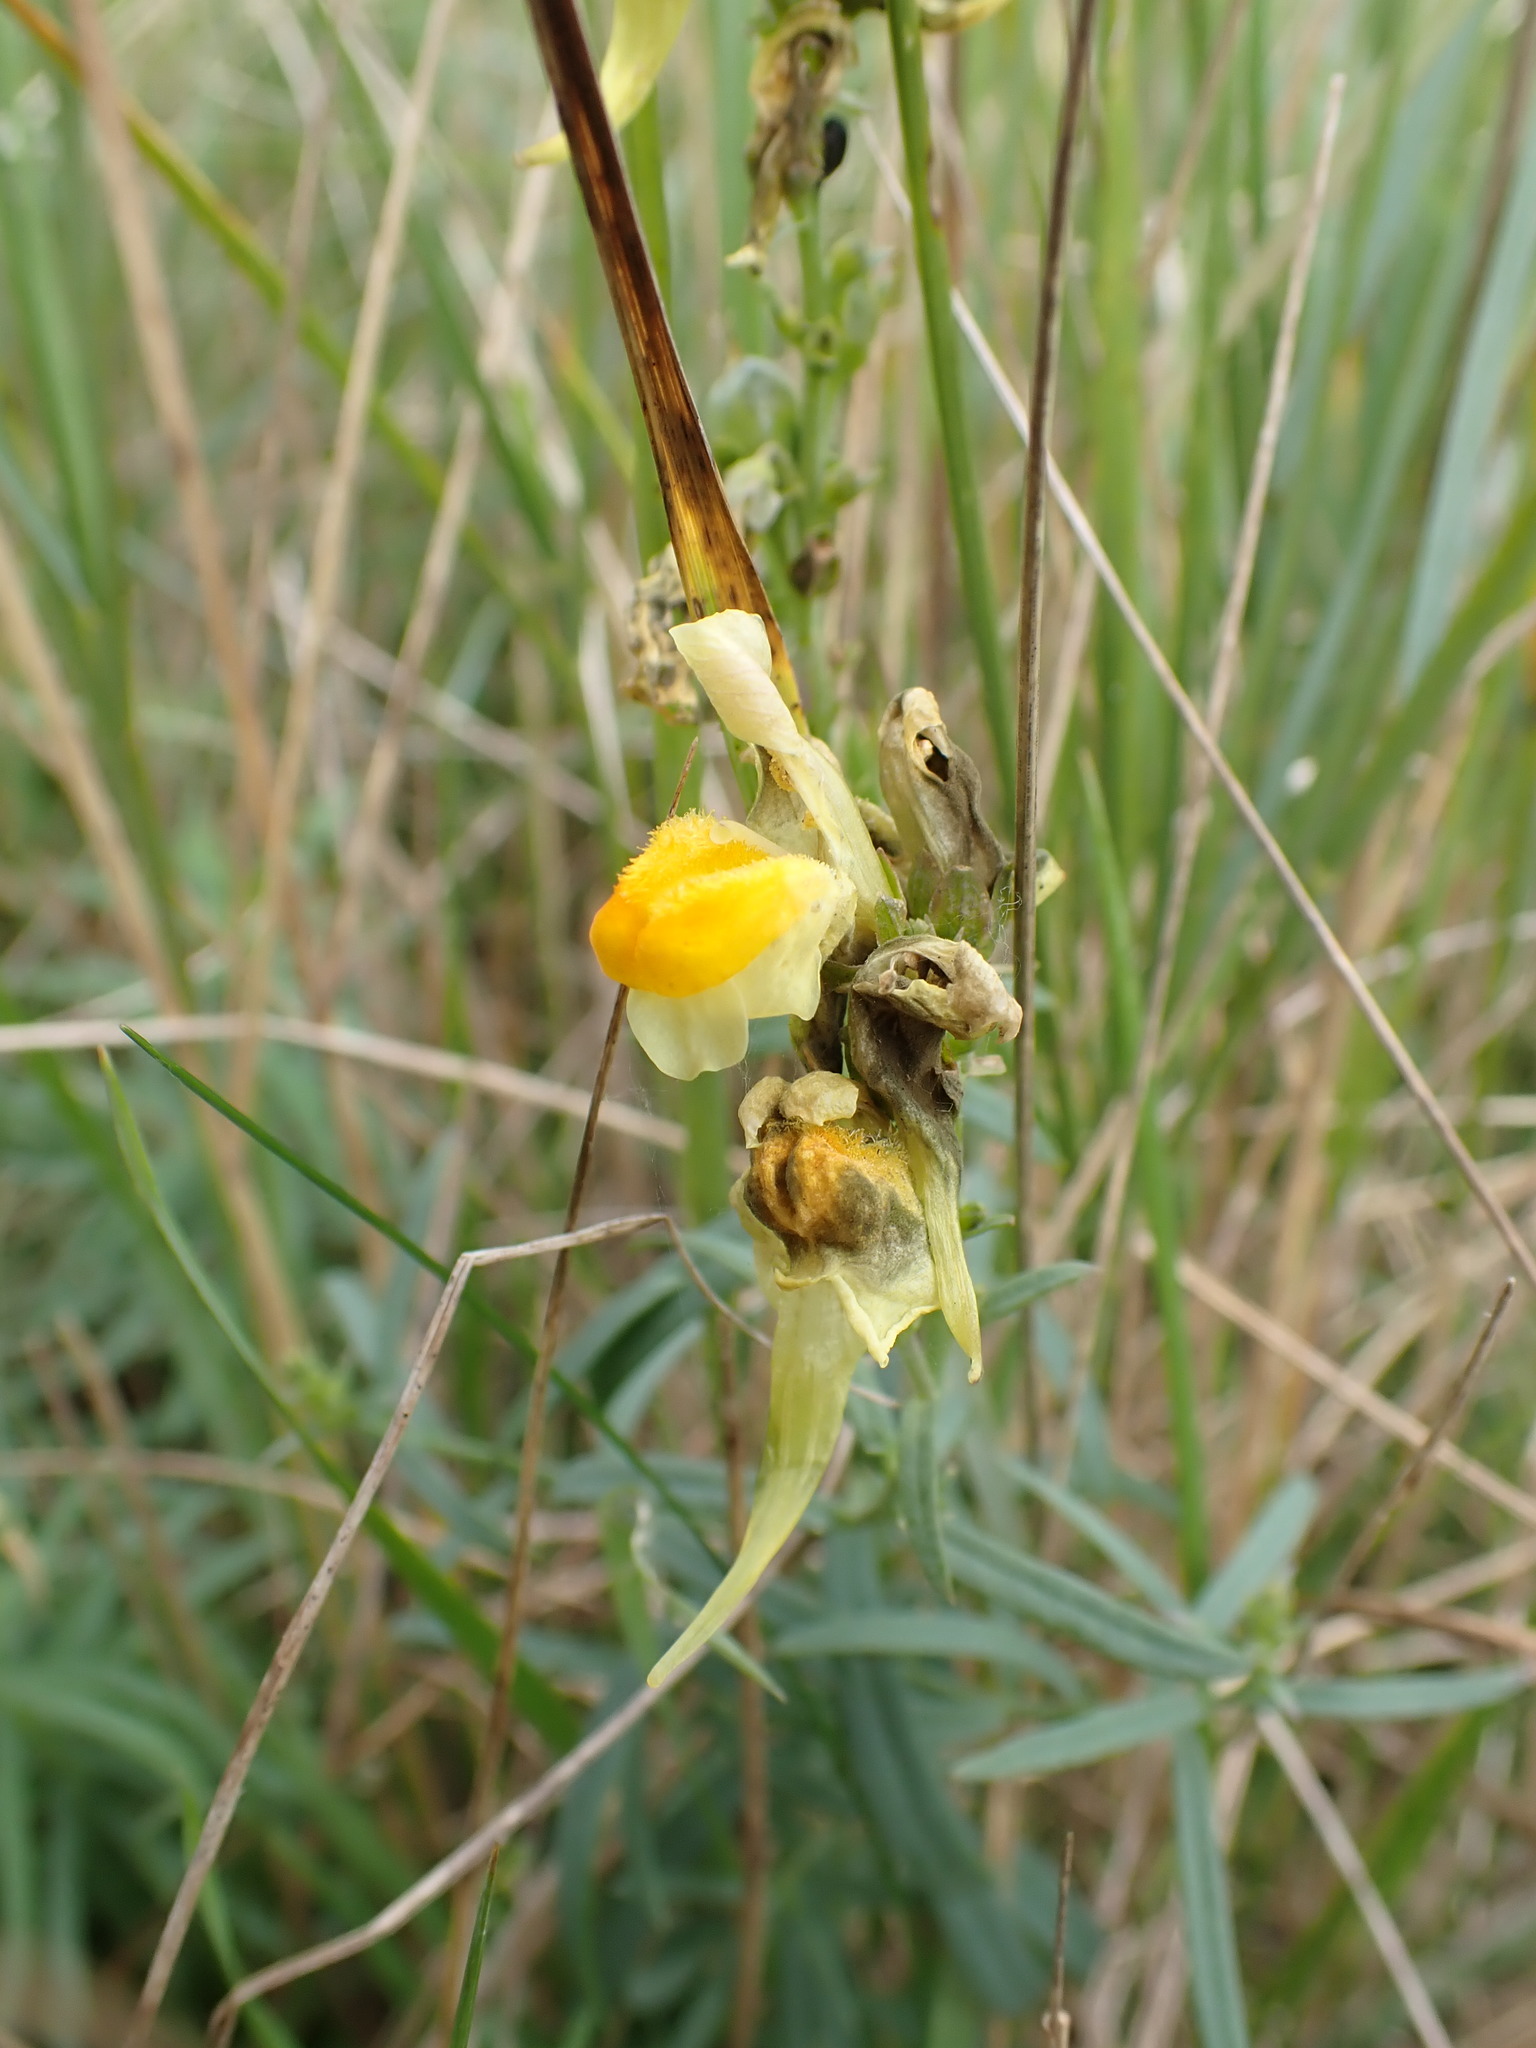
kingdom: Plantae
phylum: Tracheophyta
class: Magnoliopsida
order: Lamiales
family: Plantaginaceae
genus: Linaria
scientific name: Linaria vulgaris
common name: Butter and eggs
